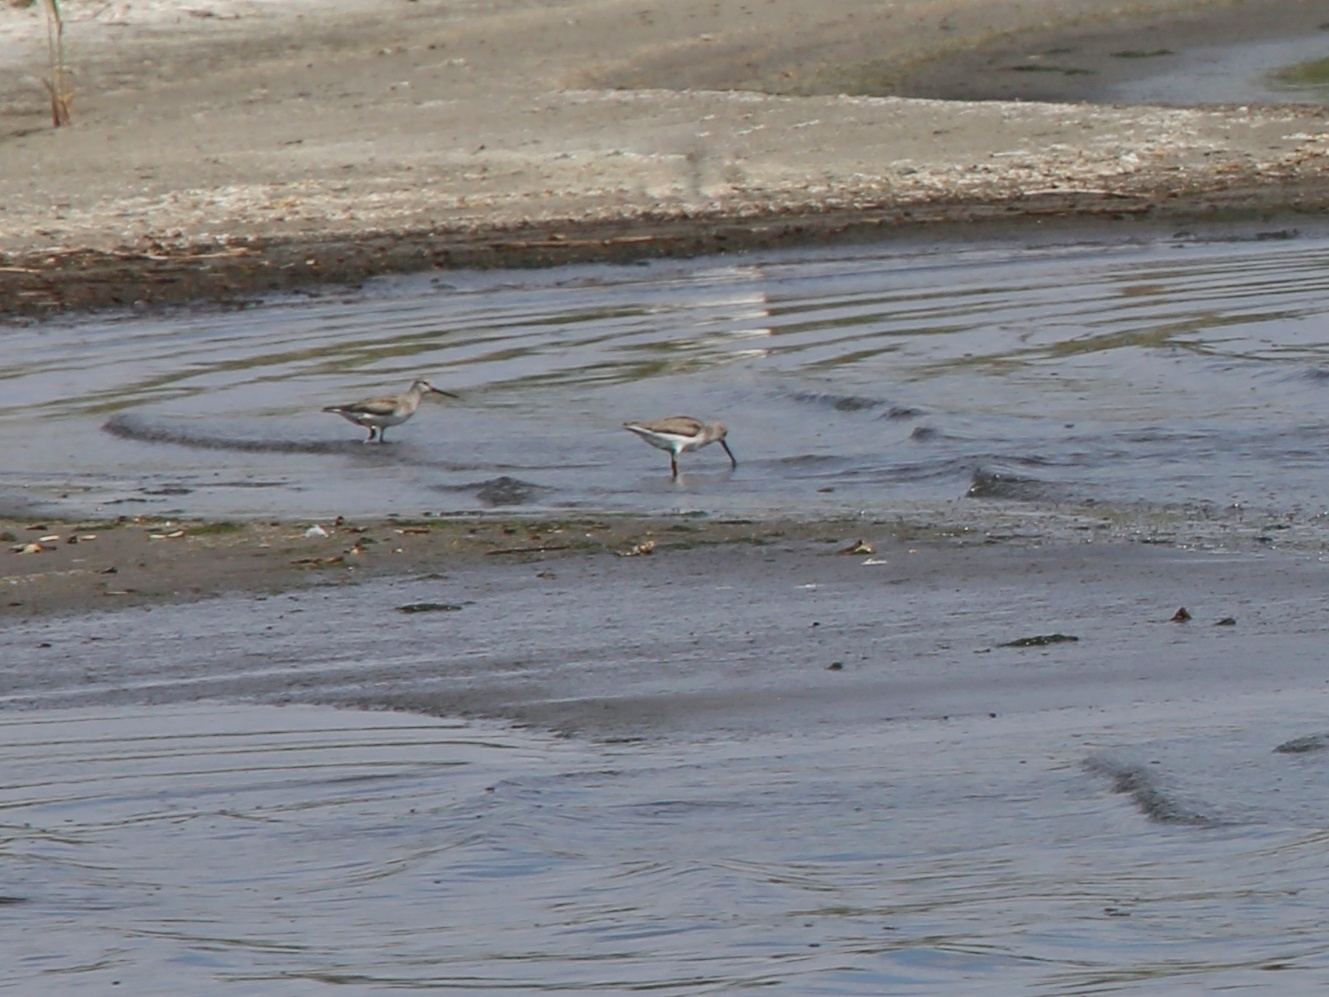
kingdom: Animalia
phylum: Chordata
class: Aves
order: Charadriiformes
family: Scolopacidae
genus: Xenus
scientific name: Xenus cinereus
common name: Terek sandpiper
